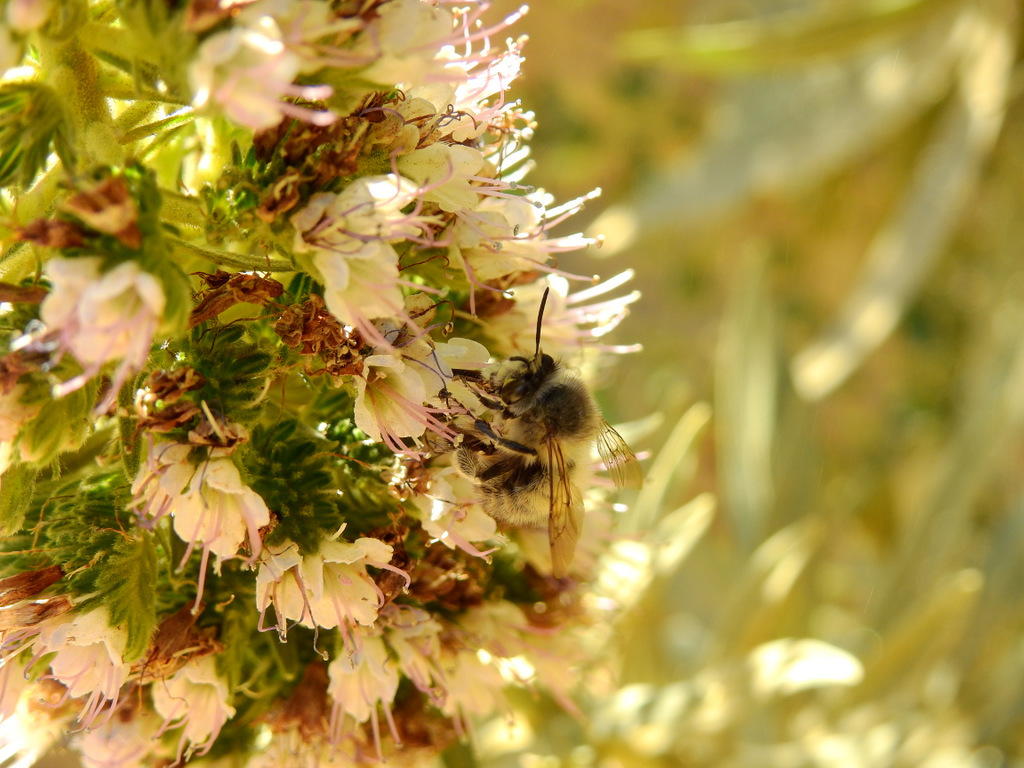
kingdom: Animalia
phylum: Arthropoda
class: Insecta
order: Hymenoptera
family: Apidae
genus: Anthophora
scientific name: Anthophora plumipes
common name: Hairy-footed flower bee
